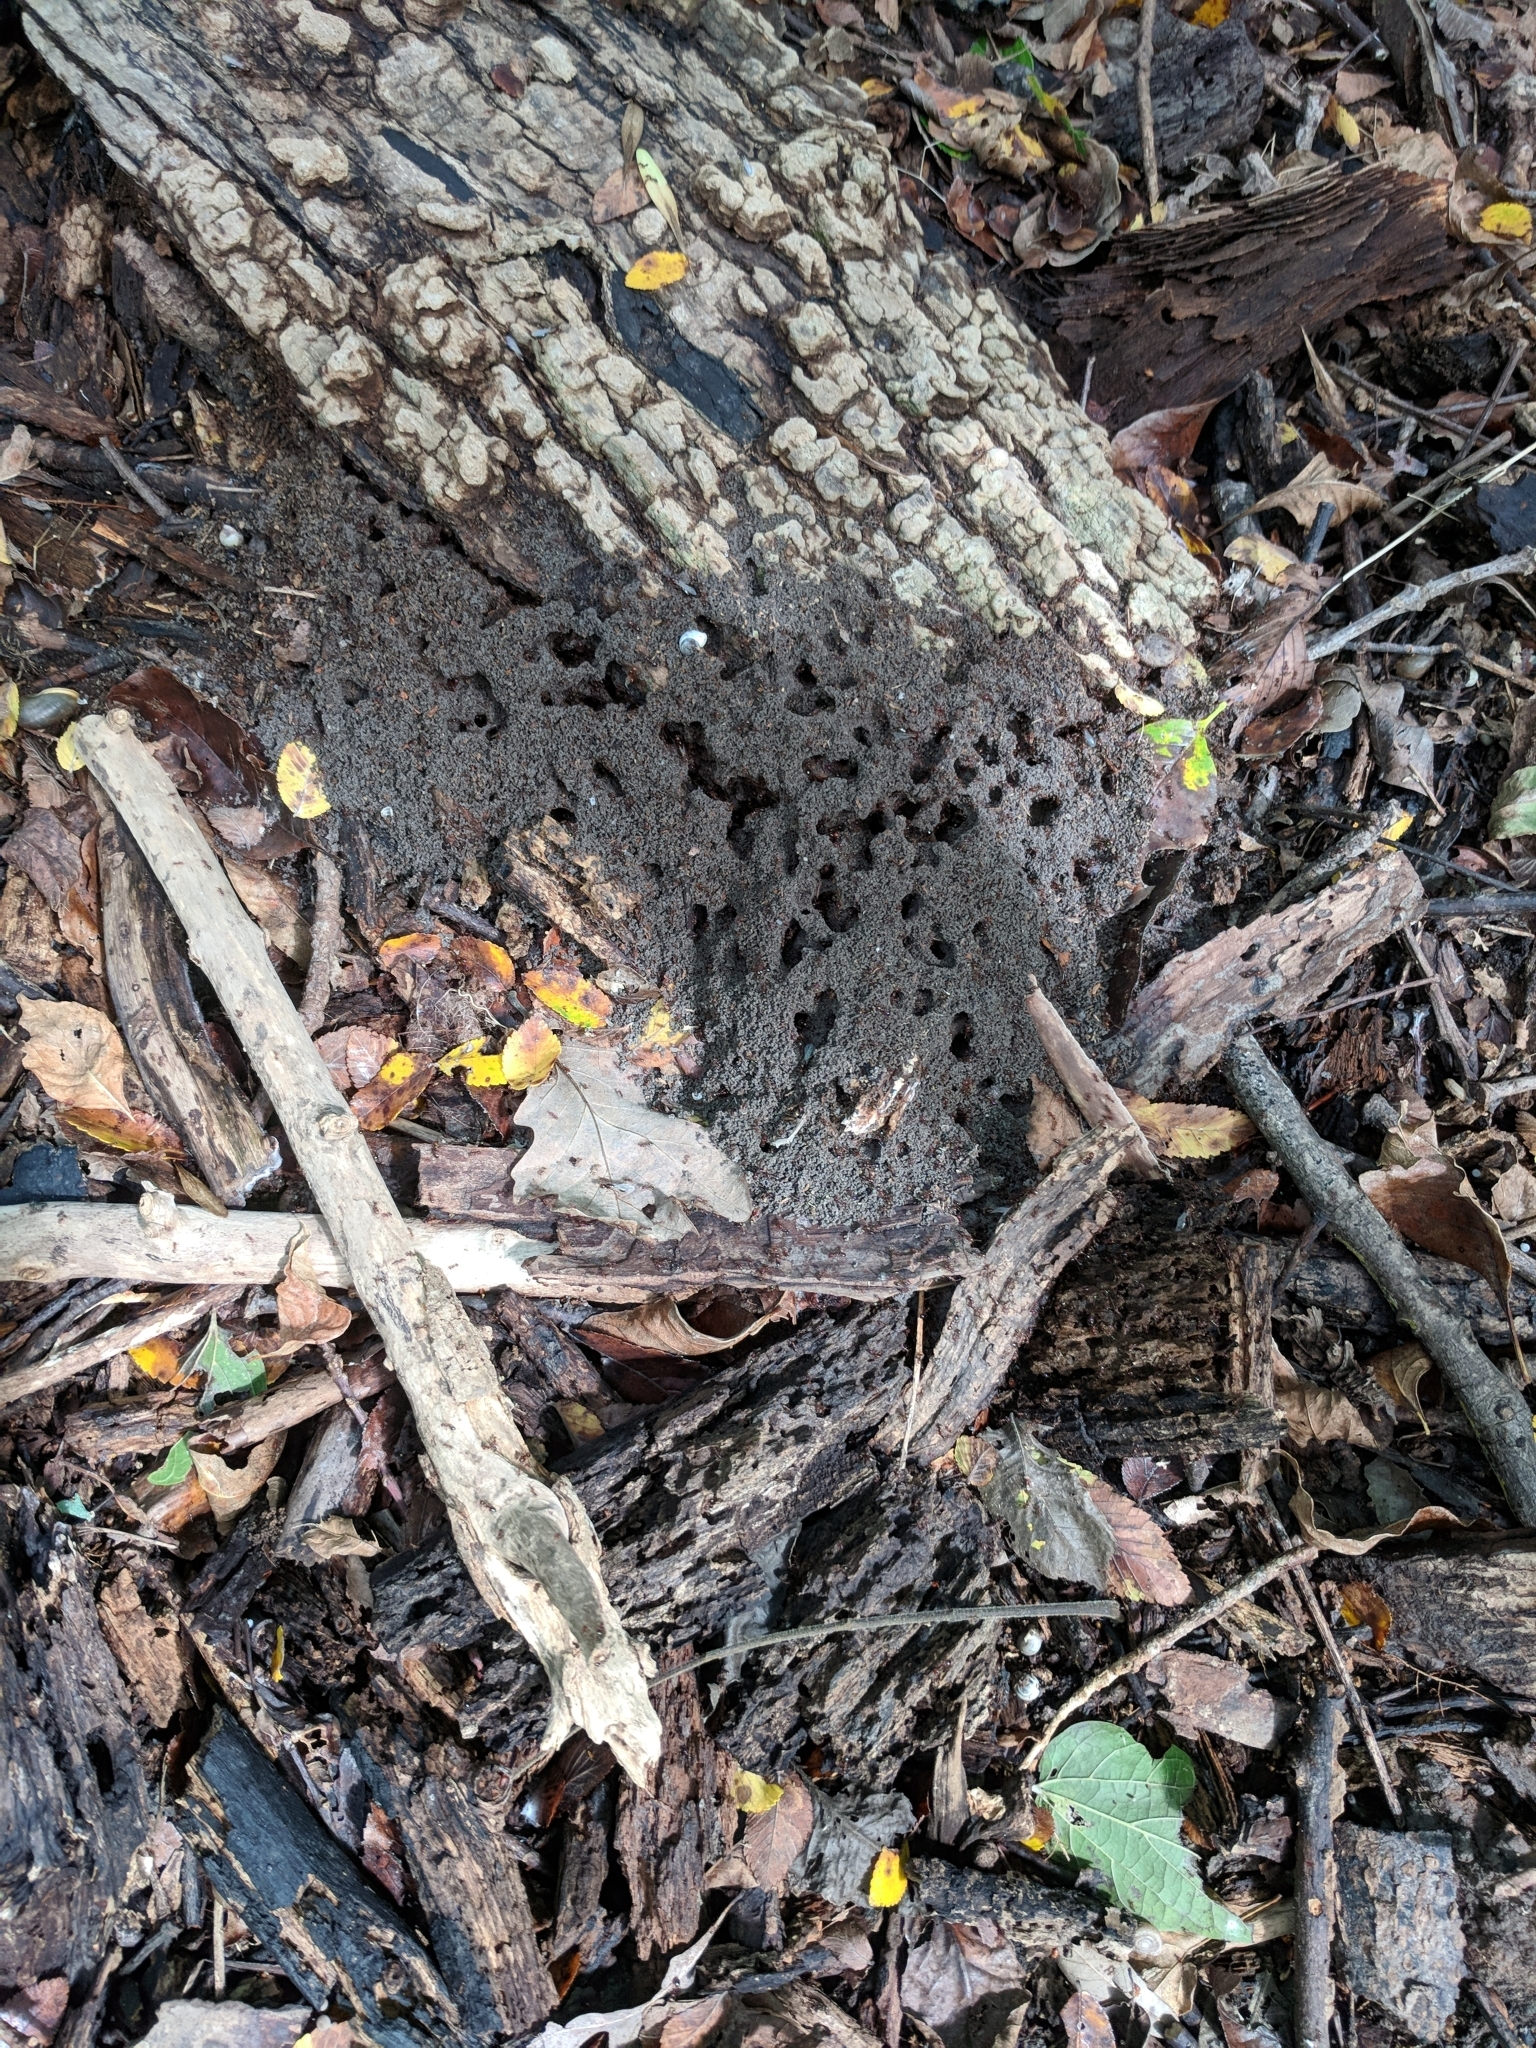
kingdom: Animalia
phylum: Arthropoda
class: Insecta
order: Hymenoptera
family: Formicidae
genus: Solenopsis
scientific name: Solenopsis invicta
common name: Red imported fire ant
